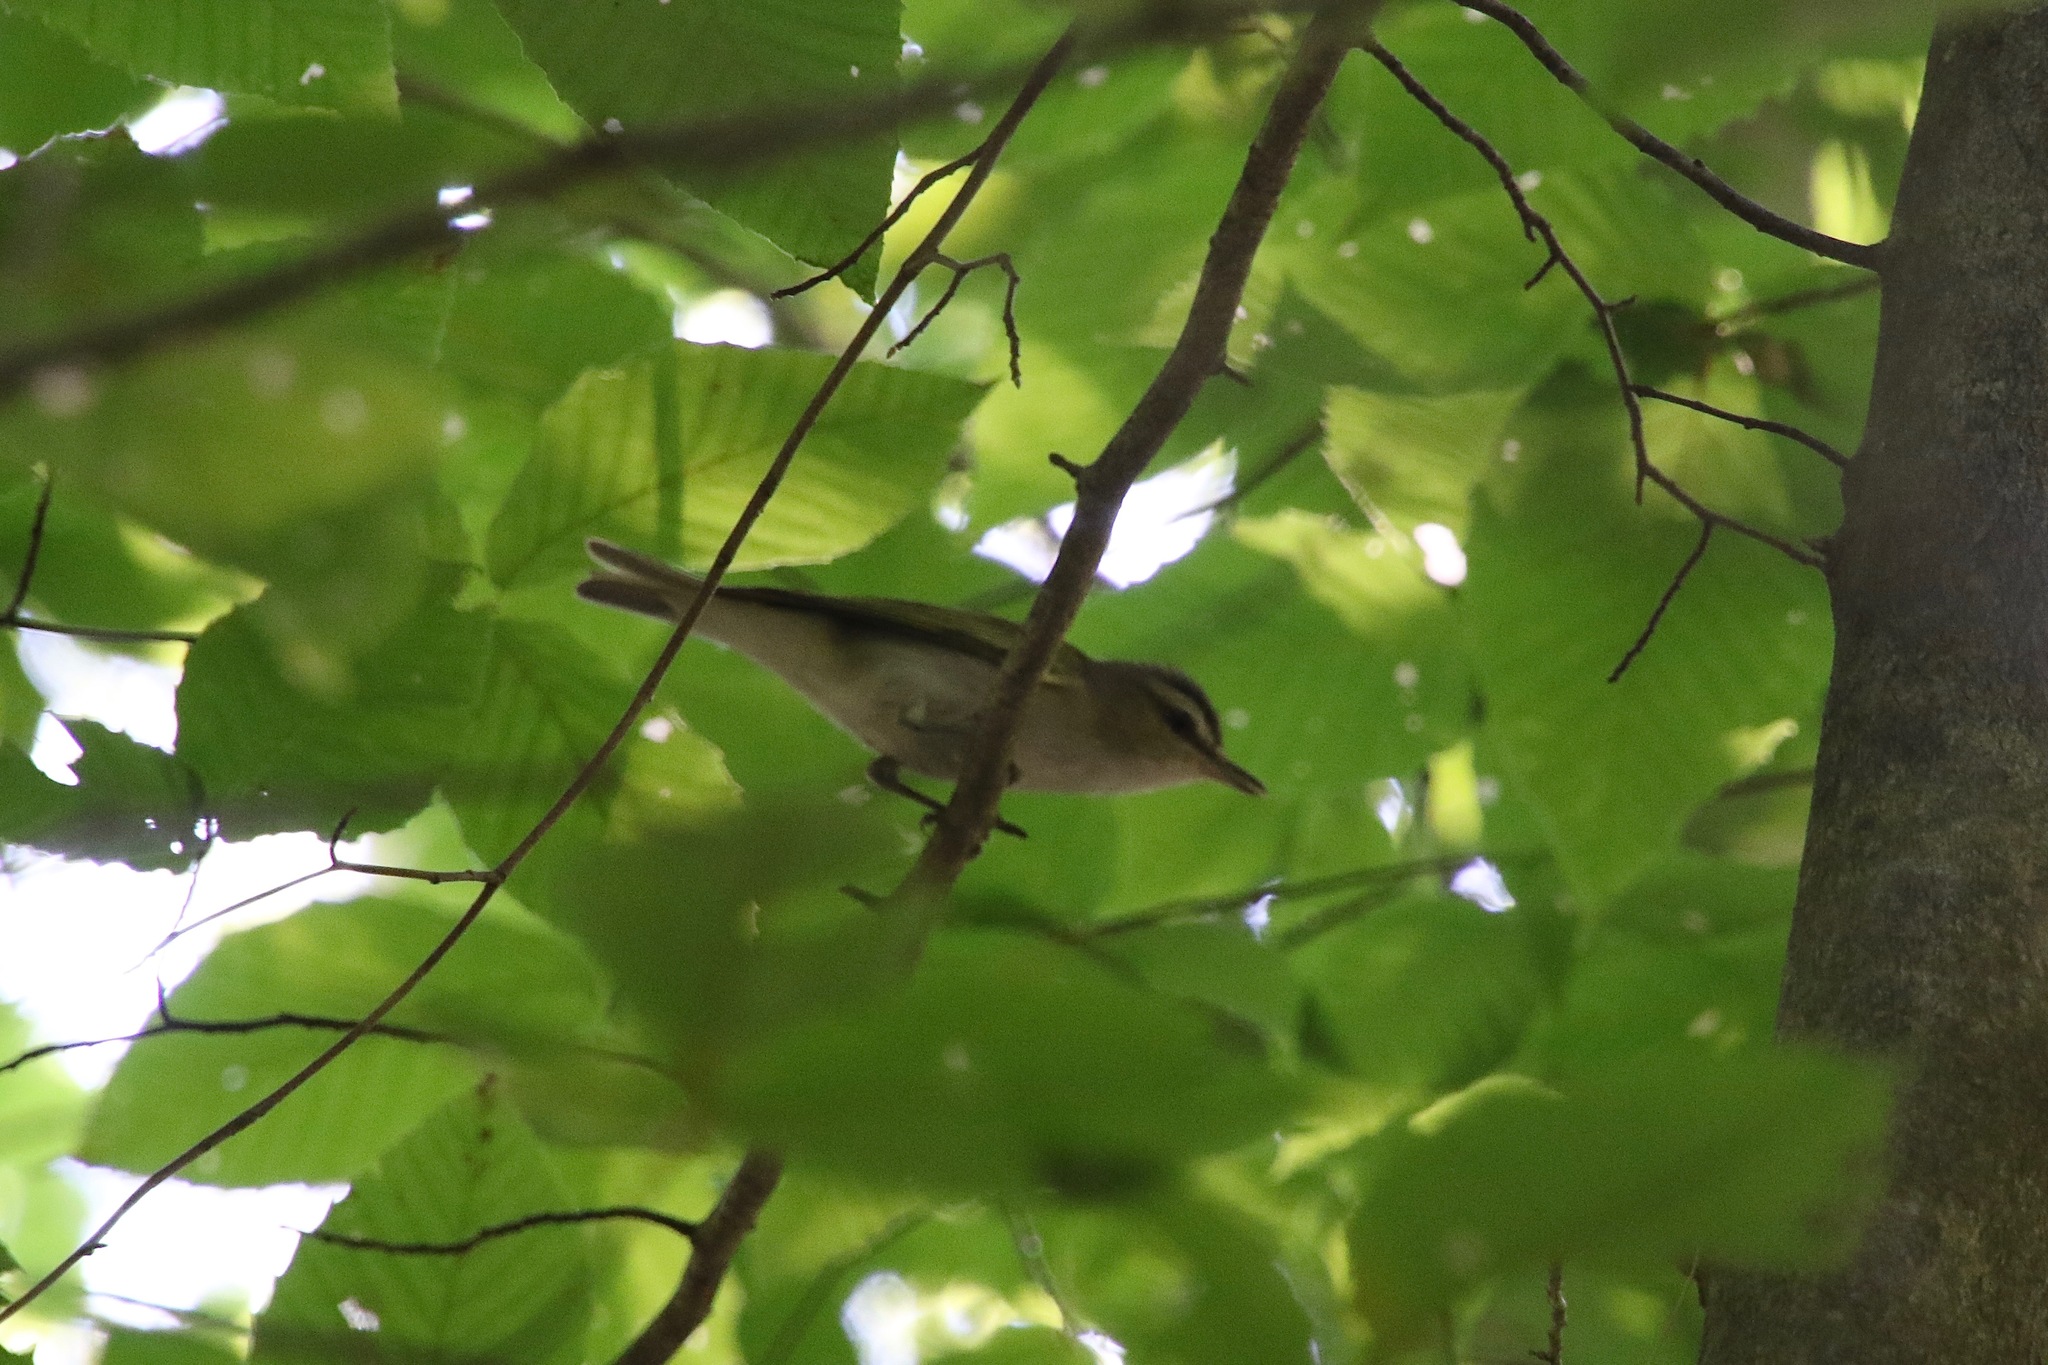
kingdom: Animalia
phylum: Chordata
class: Aves
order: Passeriformes
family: Vireonidae
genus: Vireo
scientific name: Vireo olivaceus
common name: Red-eyed vireo
